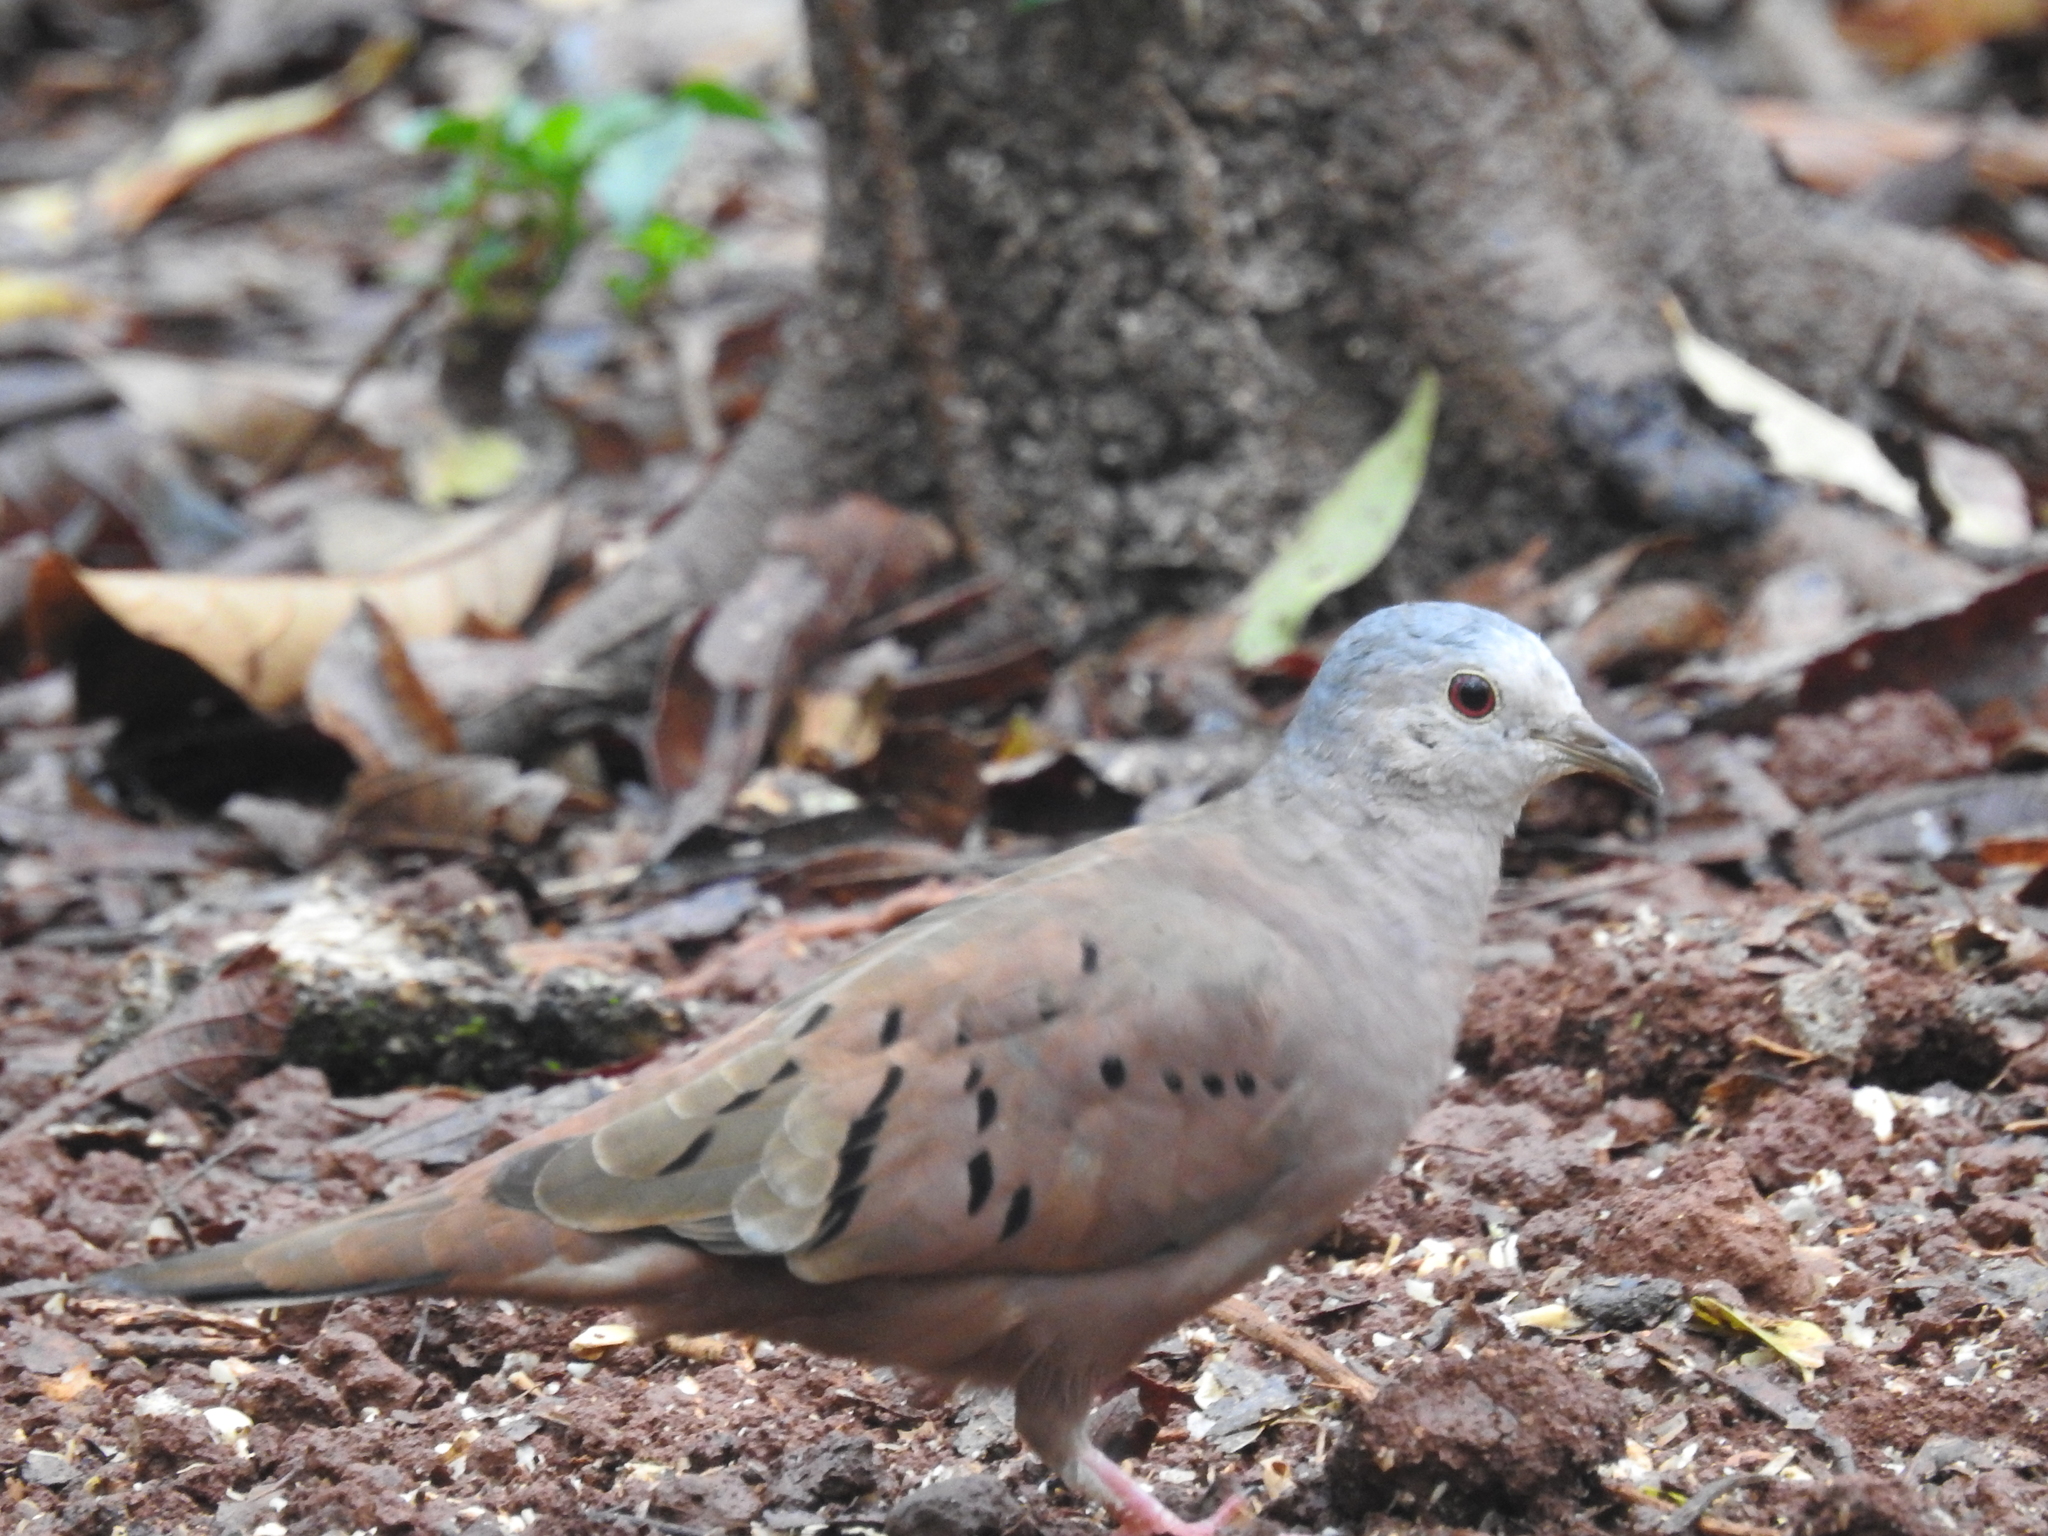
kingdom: Animalia
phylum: Chordata
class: Aves
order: Columbiformes
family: Columbidae
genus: Columbina
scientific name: Columbina talpacoti
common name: Ruddy ground dove
